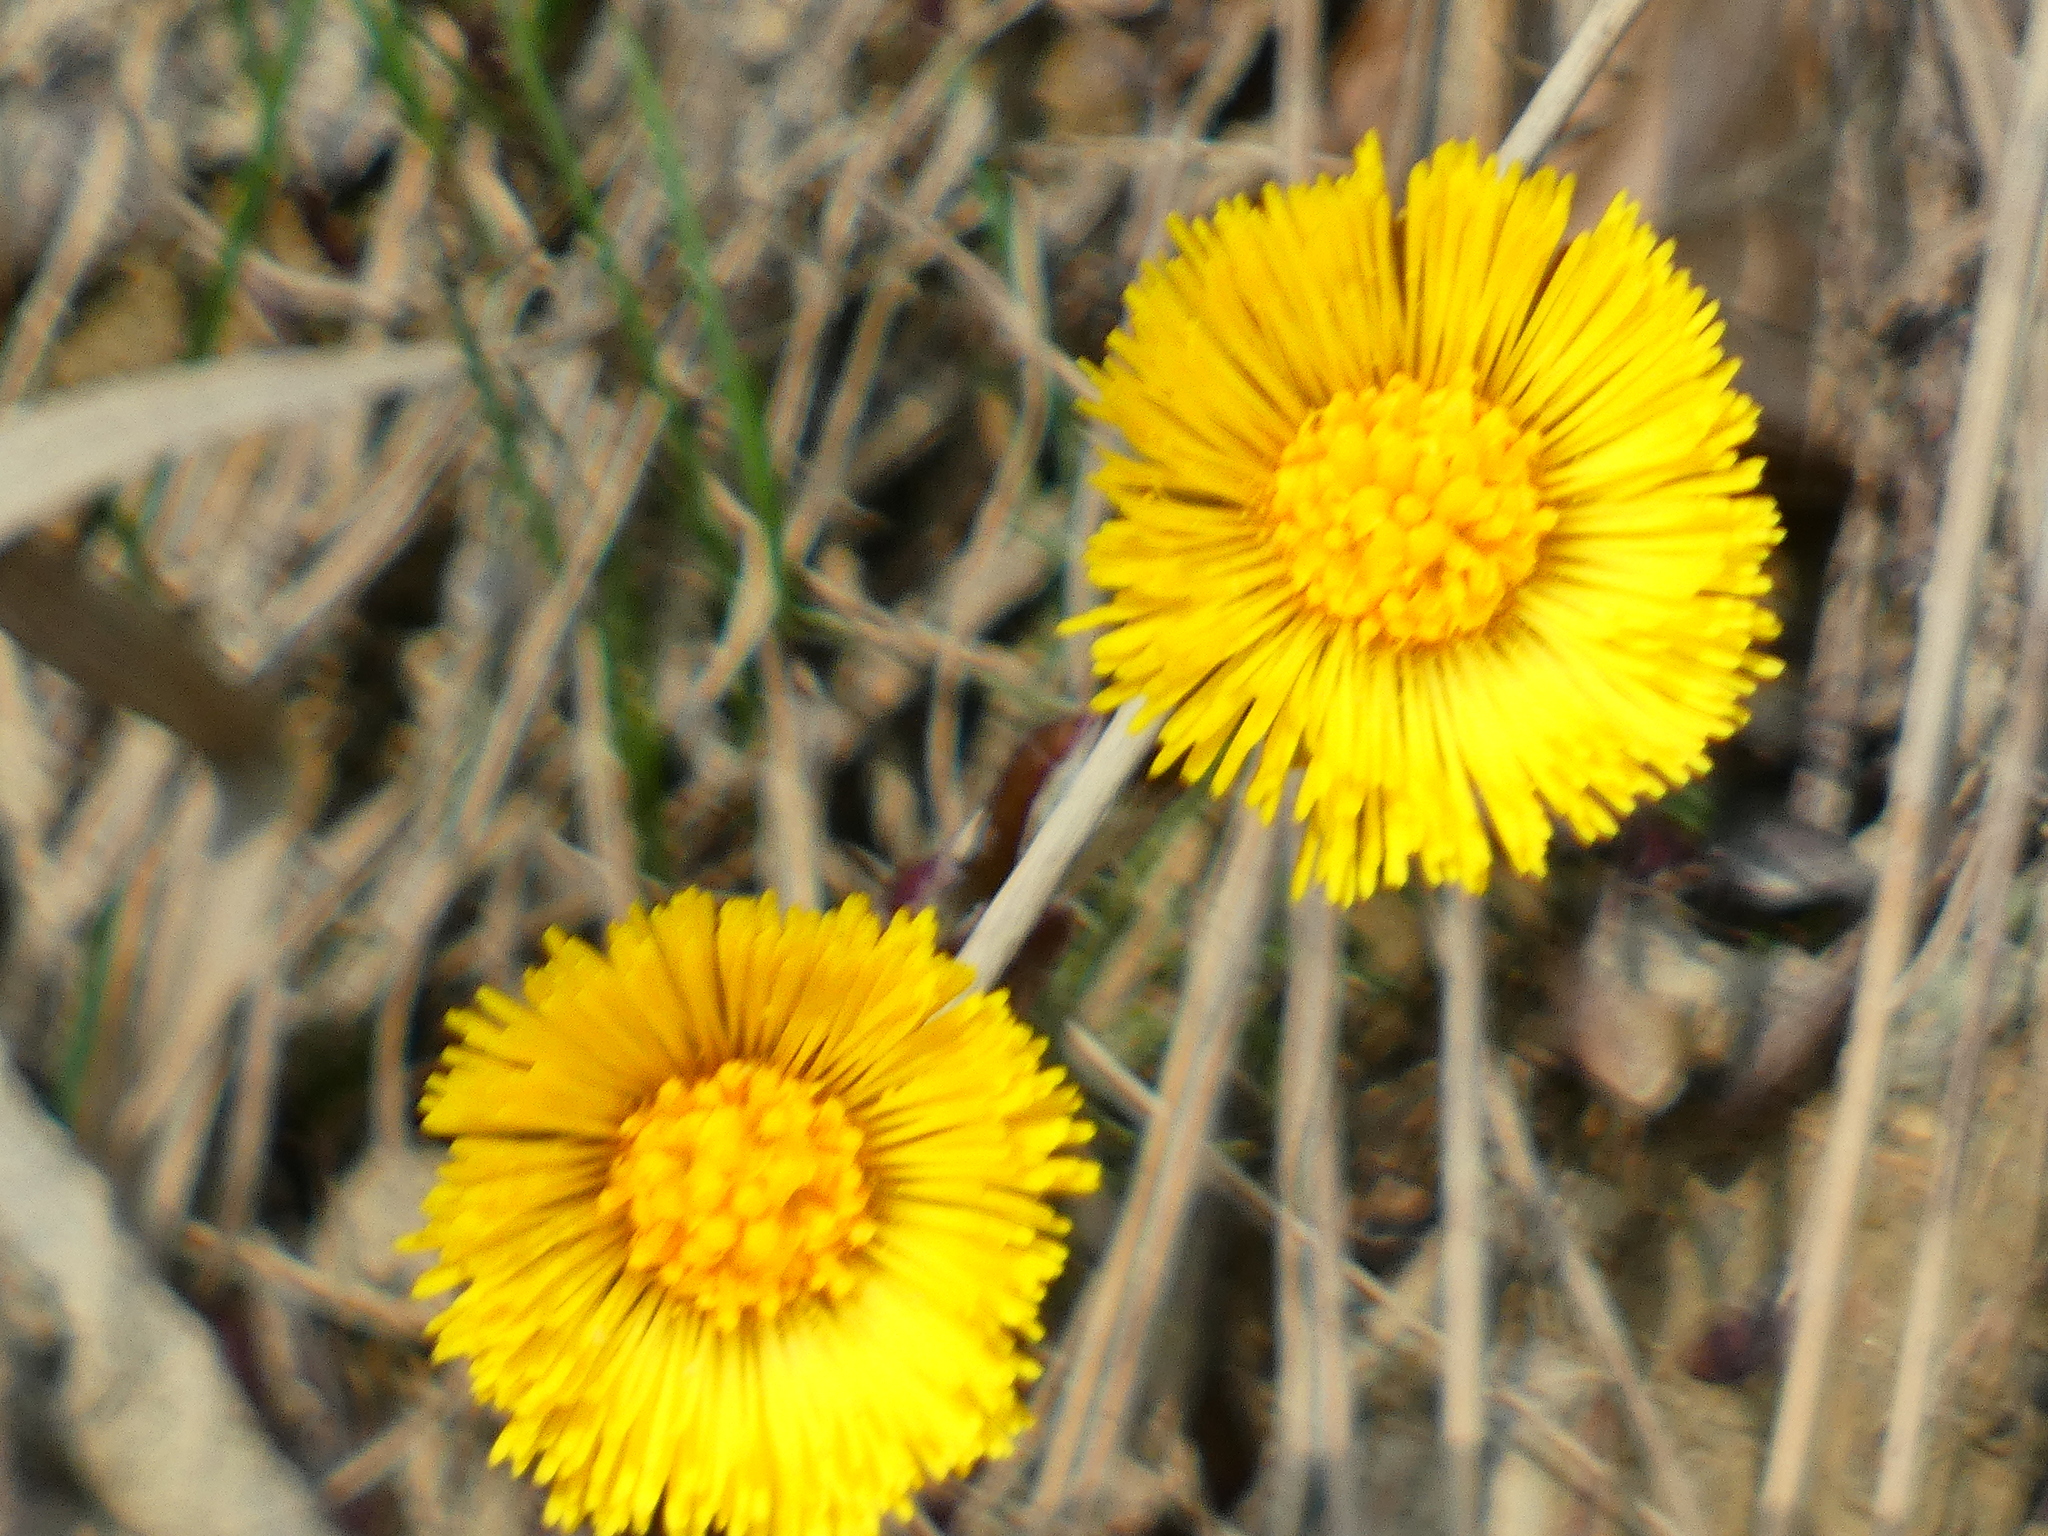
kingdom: Plantae
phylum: Tracheophyta
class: Magnoliopsida
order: Asterales
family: Asteraceae
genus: Tussilago
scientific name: Tussilago farfara
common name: Coltsfoot
